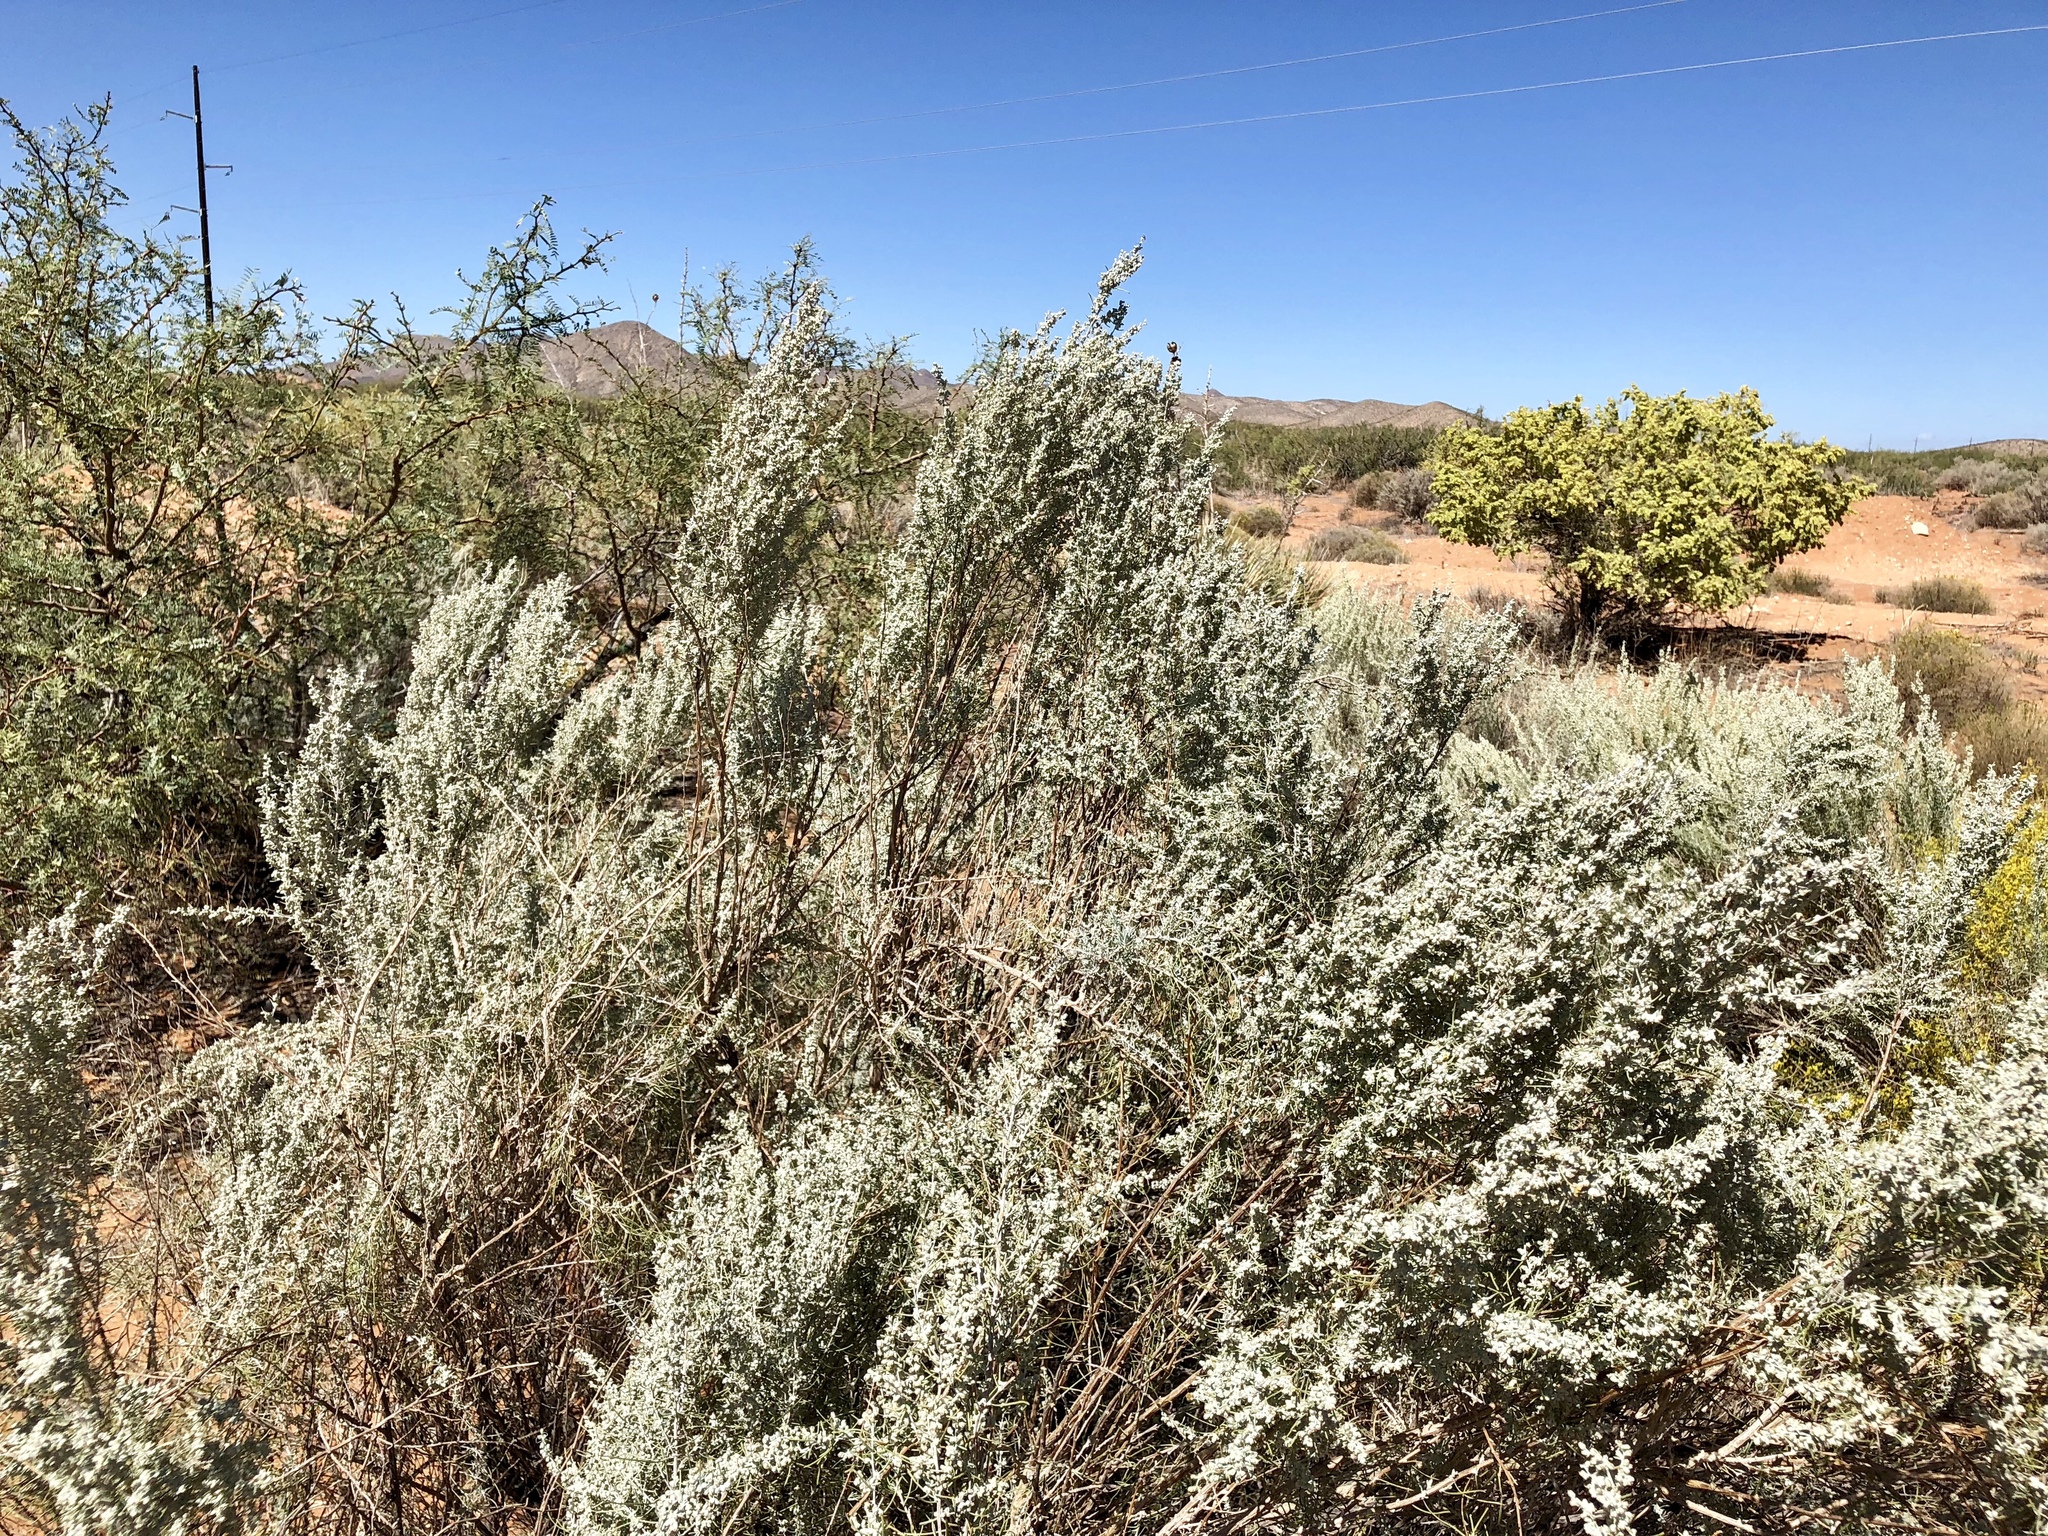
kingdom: Plantae
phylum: Tracheophyta
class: Magnoliopsida
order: Asterales
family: Asteraceae
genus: Artemisia
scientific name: Artemisia filifolia
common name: Sand-sage
